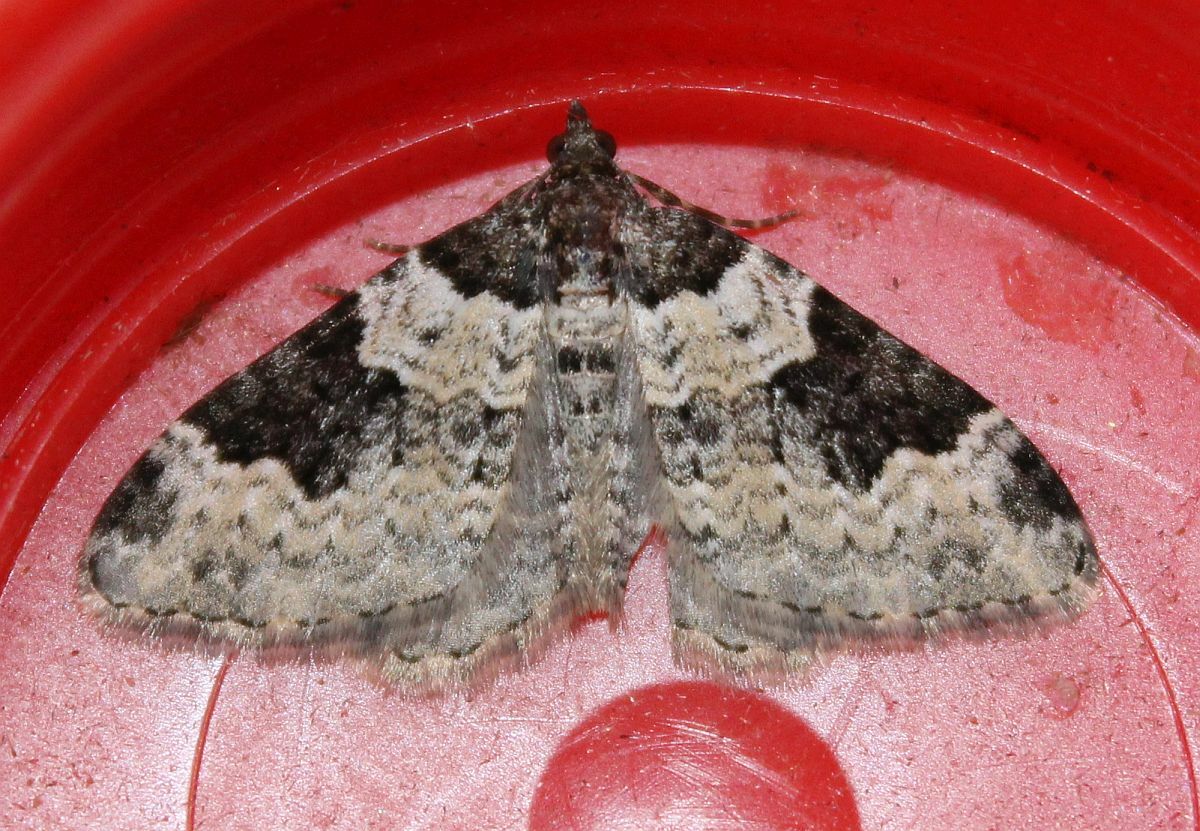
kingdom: Animalia
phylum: Arthropoda
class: Insecta
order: Lepidoptera
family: Geometridae
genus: Xanthorhoe
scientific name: Xanthorhoe fluctuata
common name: Garden carpet
